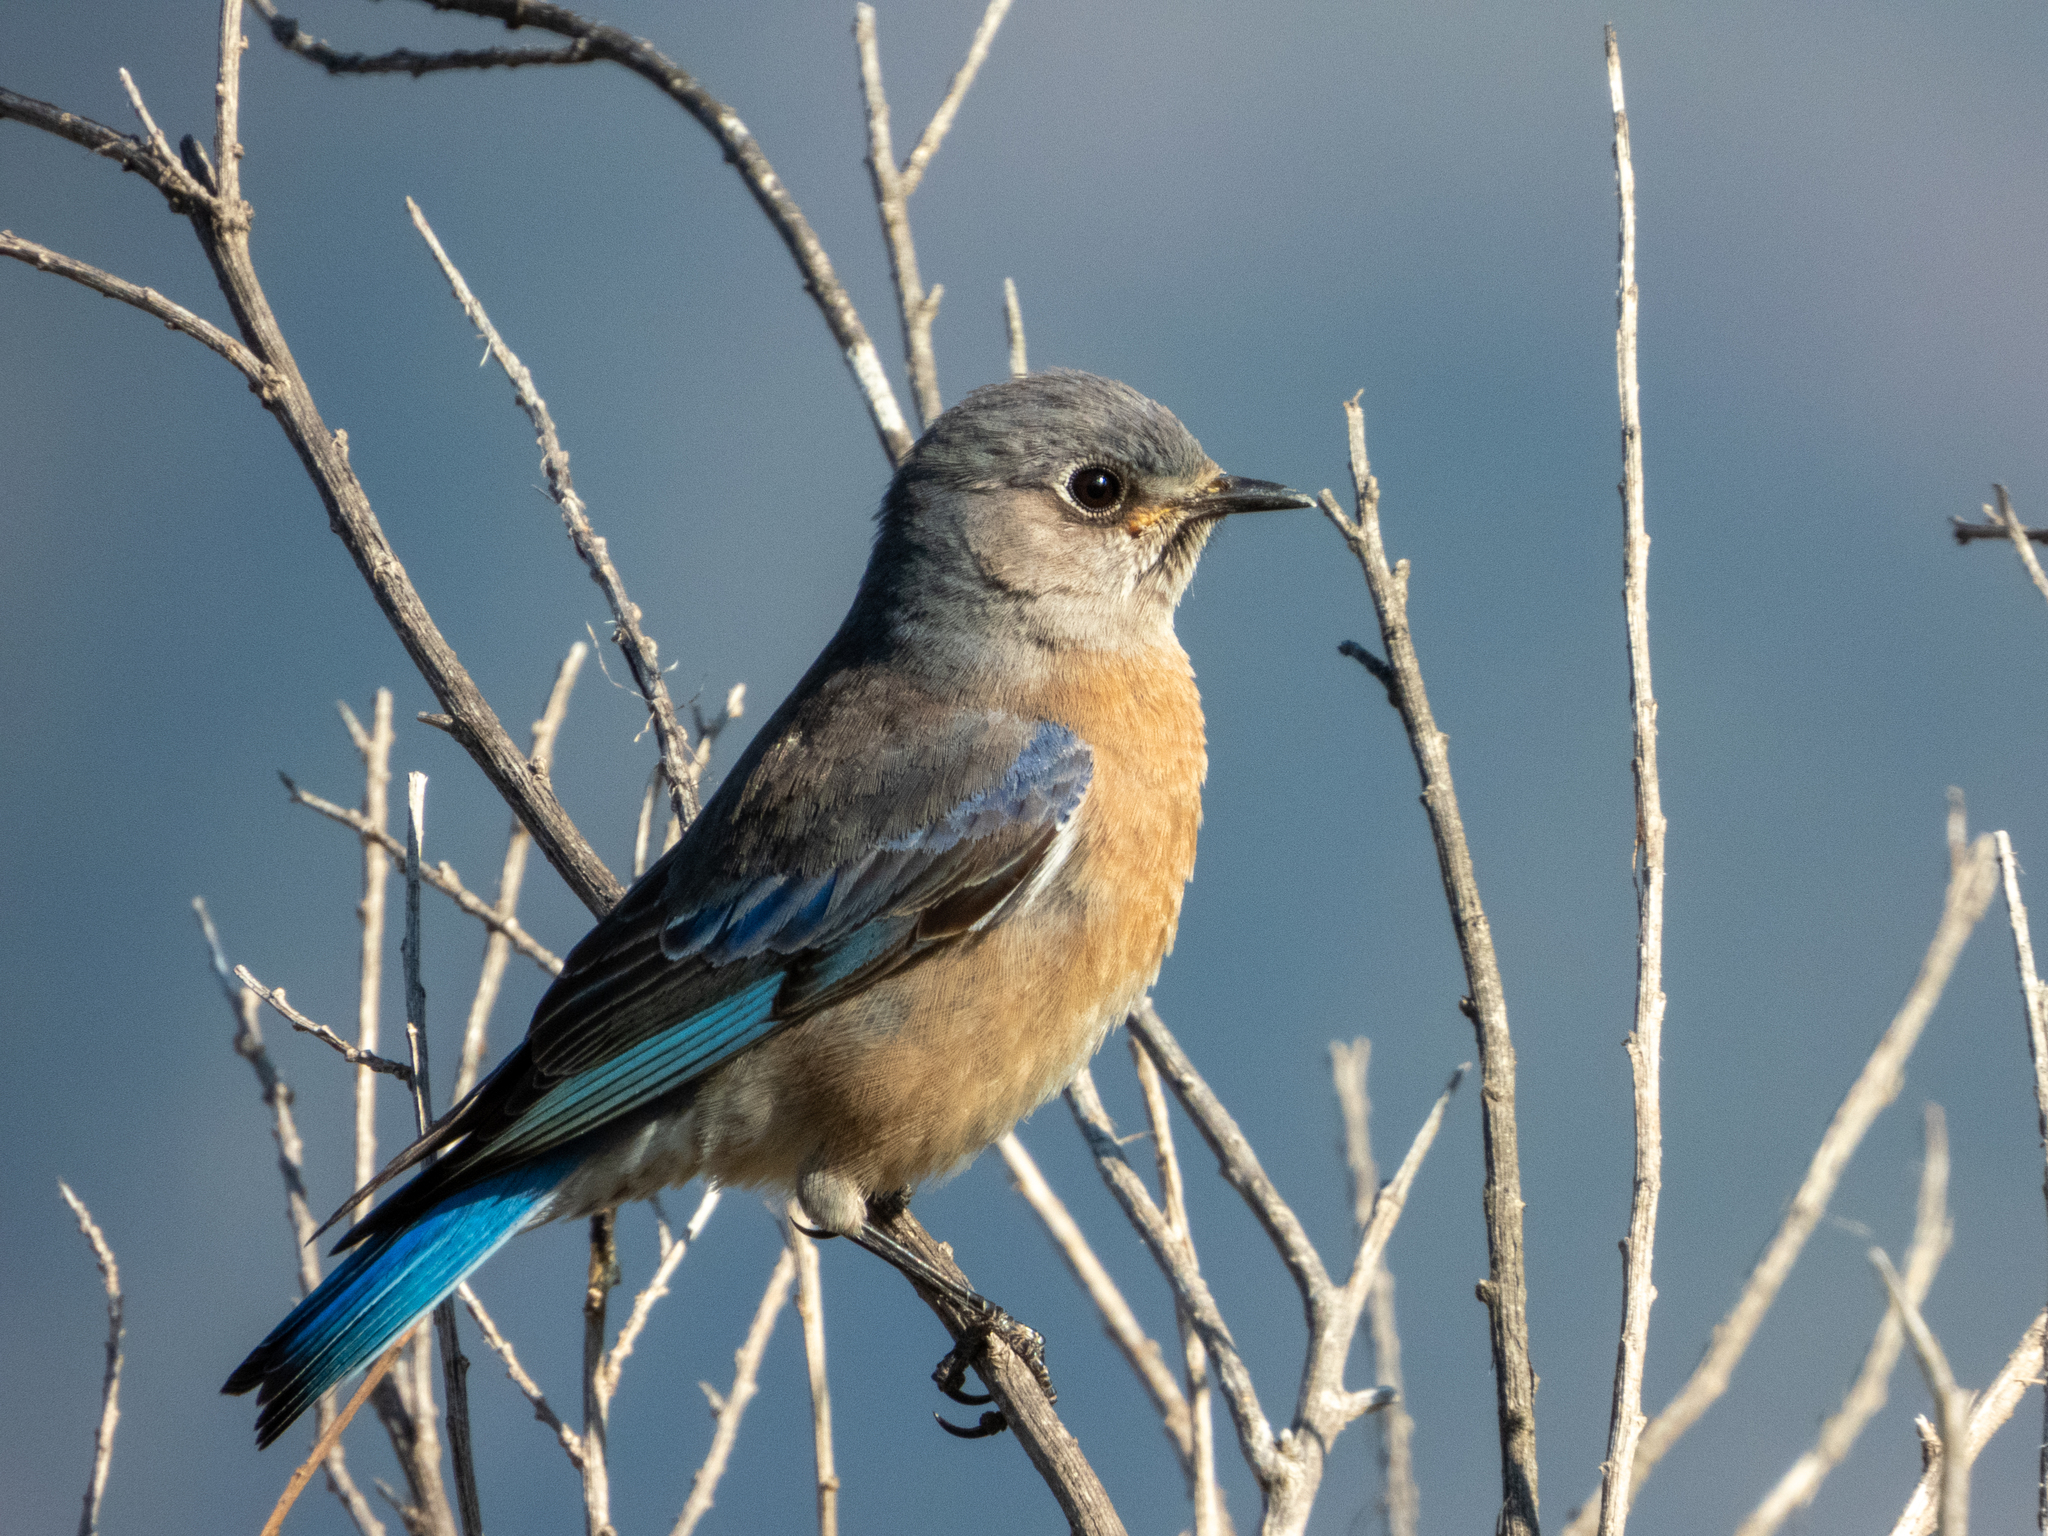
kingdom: Animalia
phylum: Chordata
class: Aves
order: Passeriformes
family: Turdidae
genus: Sialia
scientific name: Sialia mexicana
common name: Western bluebird
